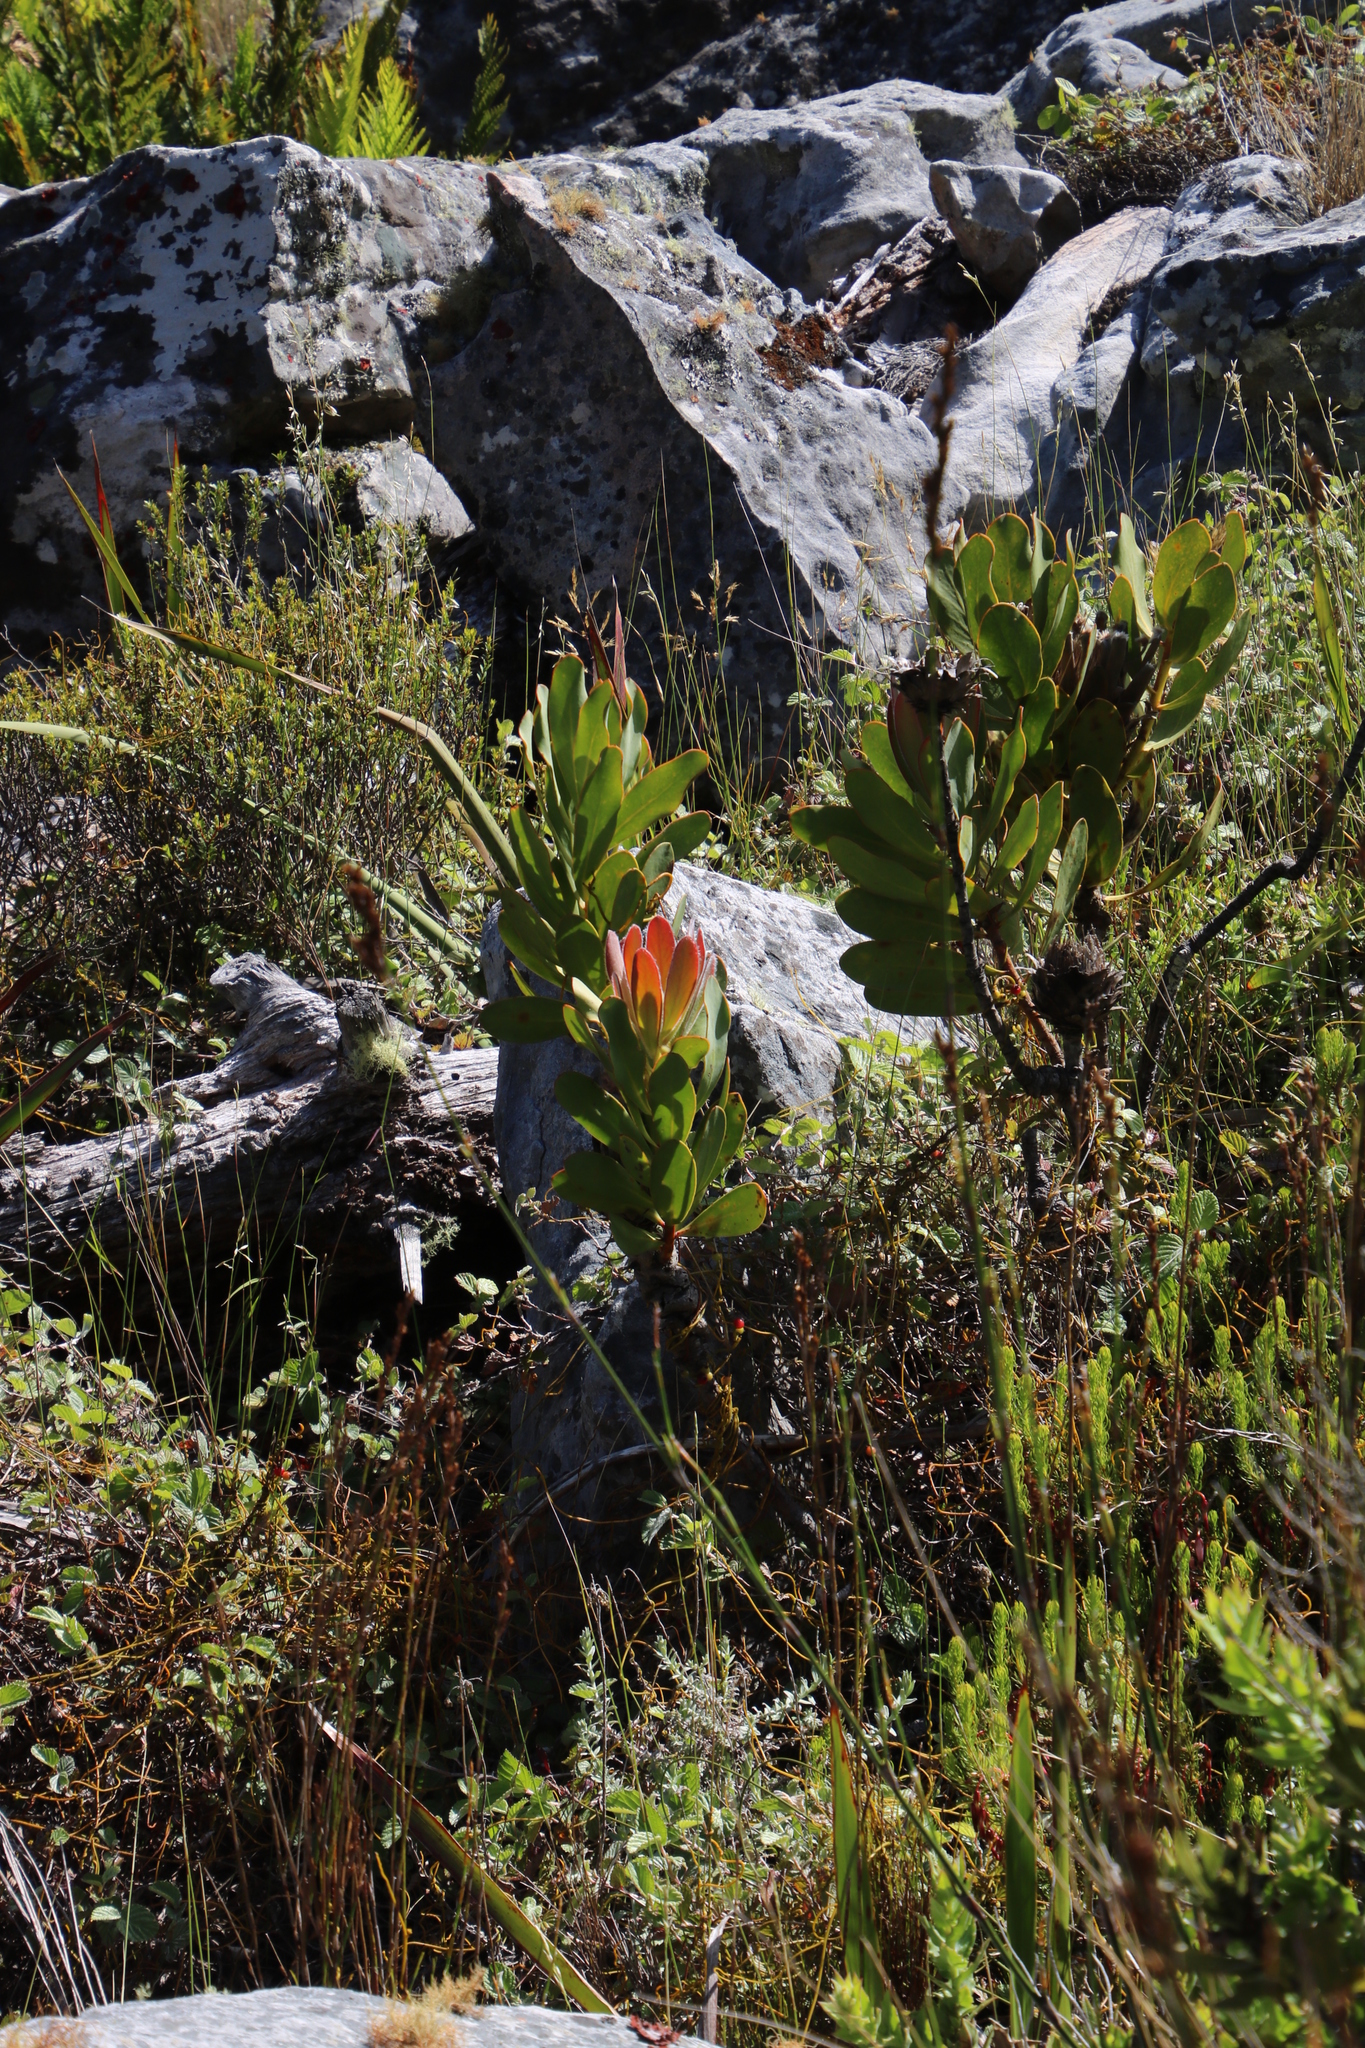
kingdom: Plantae
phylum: Tracheophyta
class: Magnoliopsida
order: Proteales
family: Proteaceae
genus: Protea
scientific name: Protea speciosa
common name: Brown-beard sugarbush
